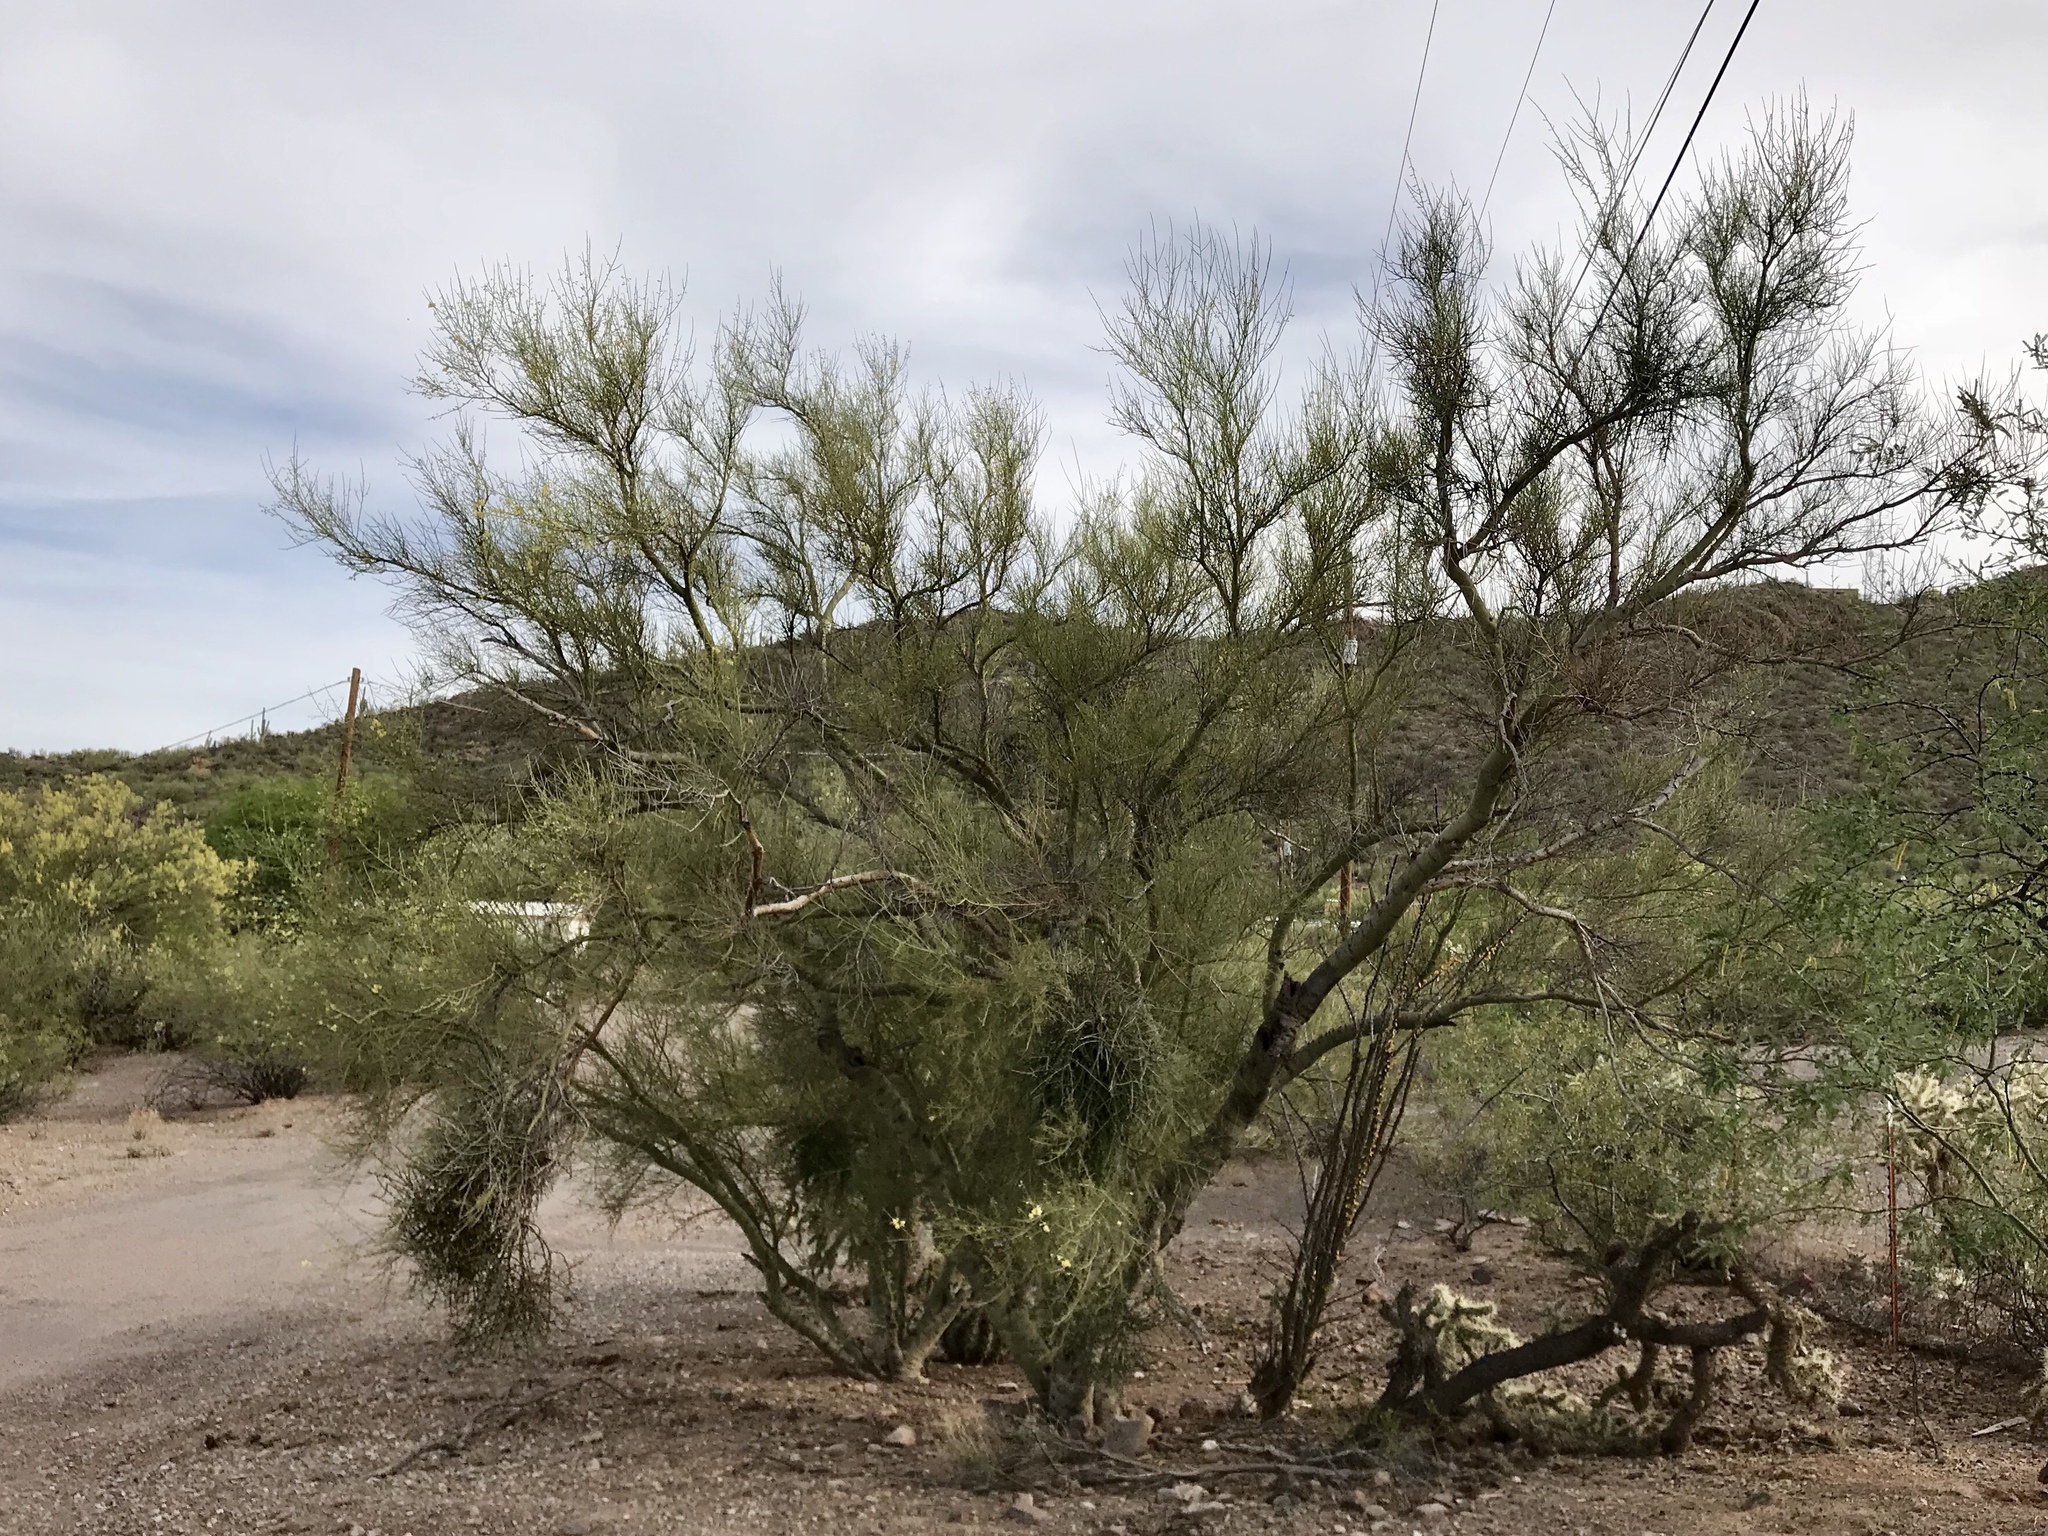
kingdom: Plantae
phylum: Tracheophyta
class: Magnoliopsida
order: Fabales
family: Fabaceae
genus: Parkinsonia
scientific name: Parkinsonia microphylla
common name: Yellow paloverde
